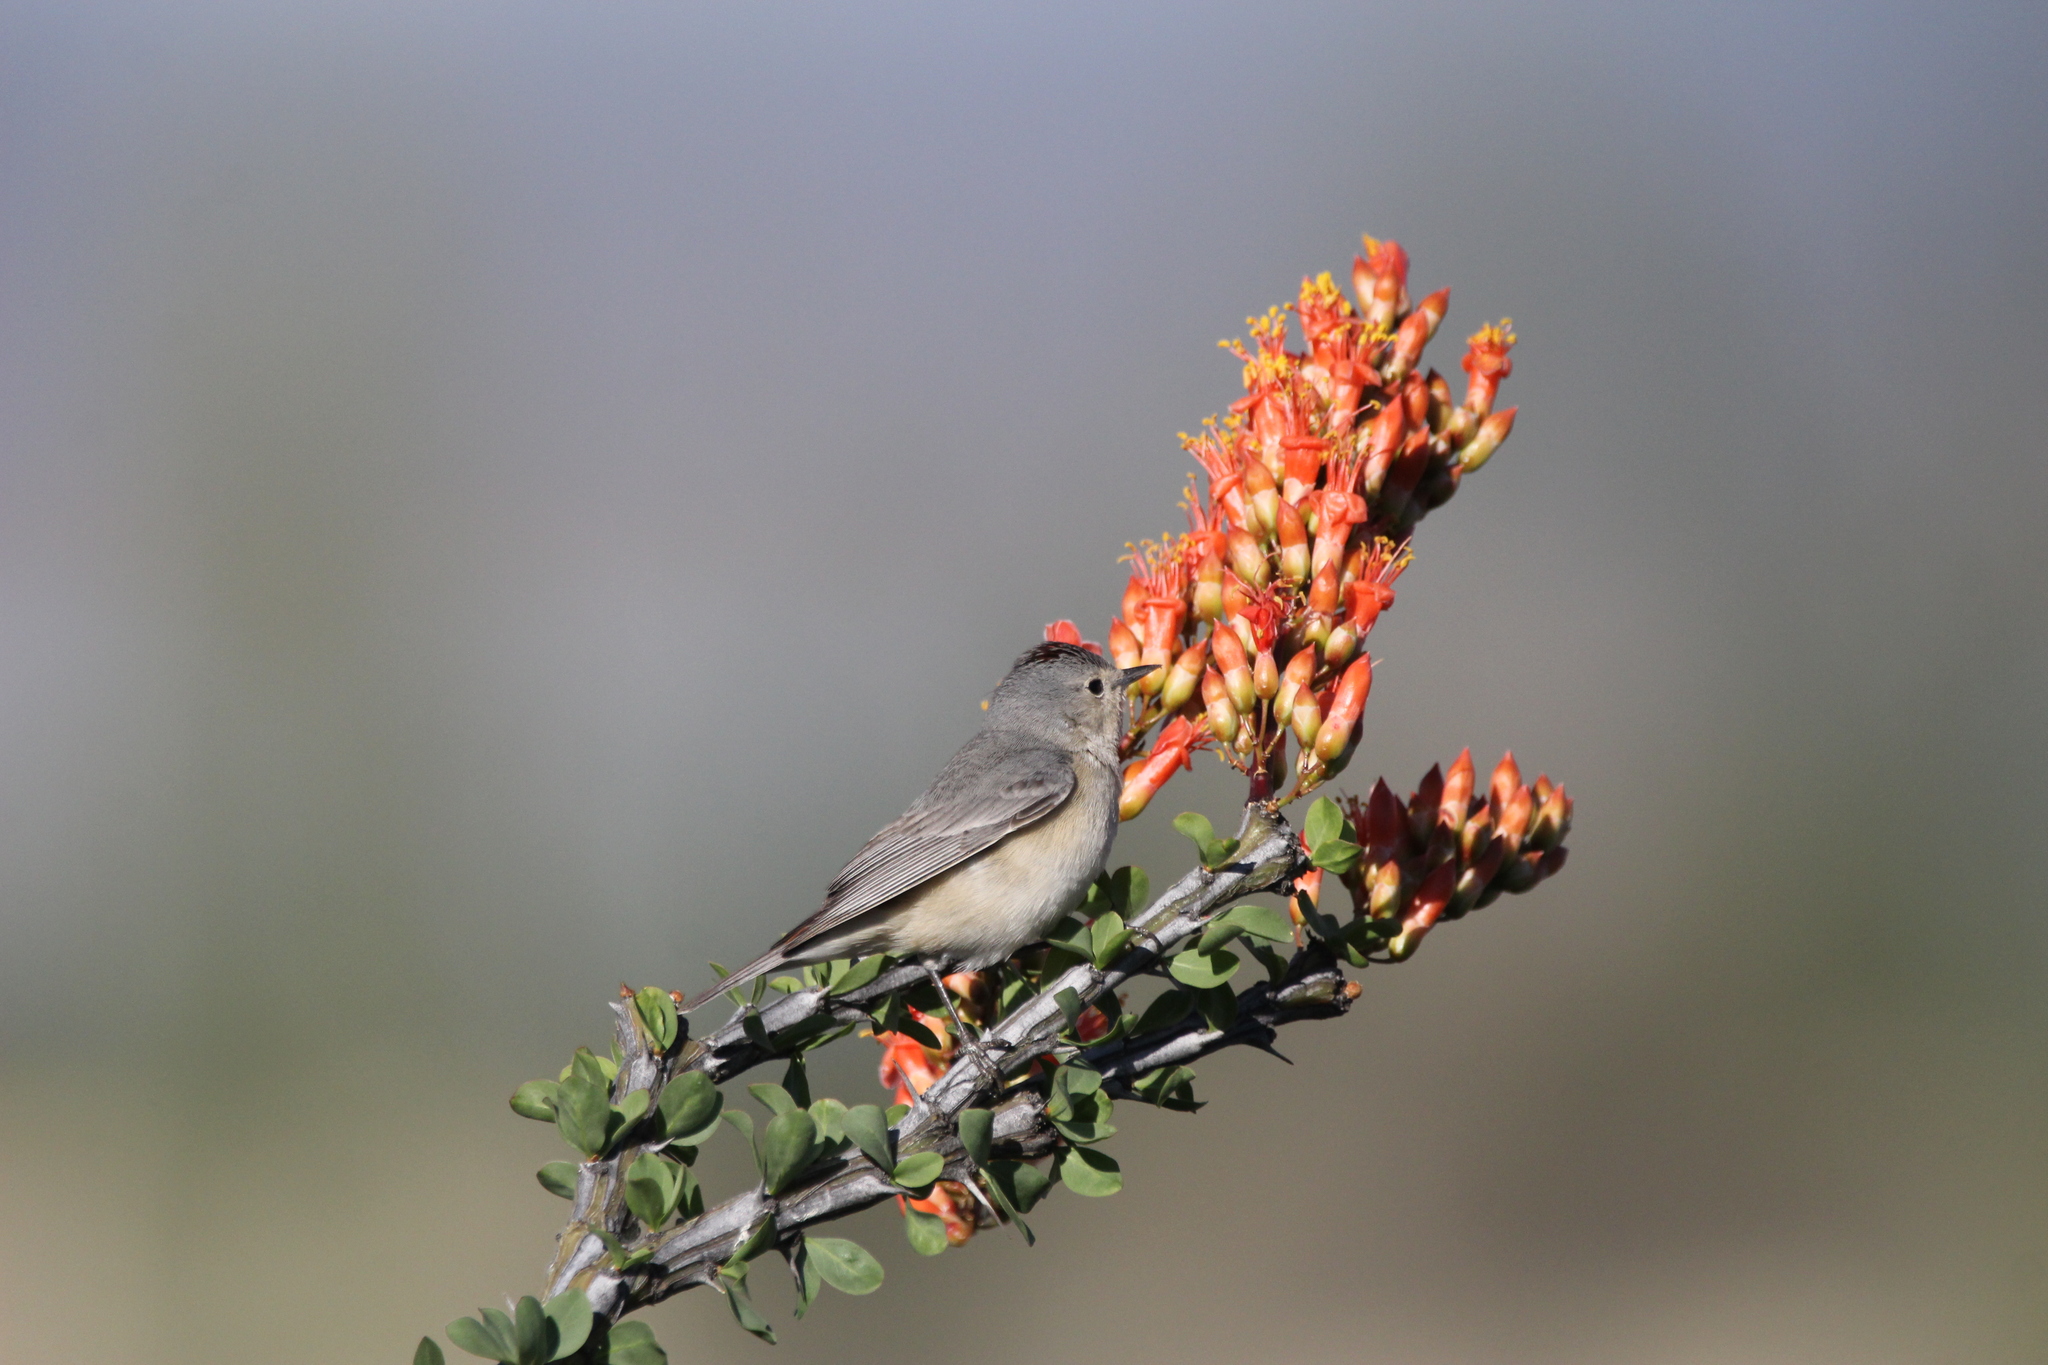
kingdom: Animalia
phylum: Chordata
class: Aves
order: Passeriformes
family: Parulidae
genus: Leiothlypis
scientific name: Leiothlypis luciae
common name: Lucy's warbler
